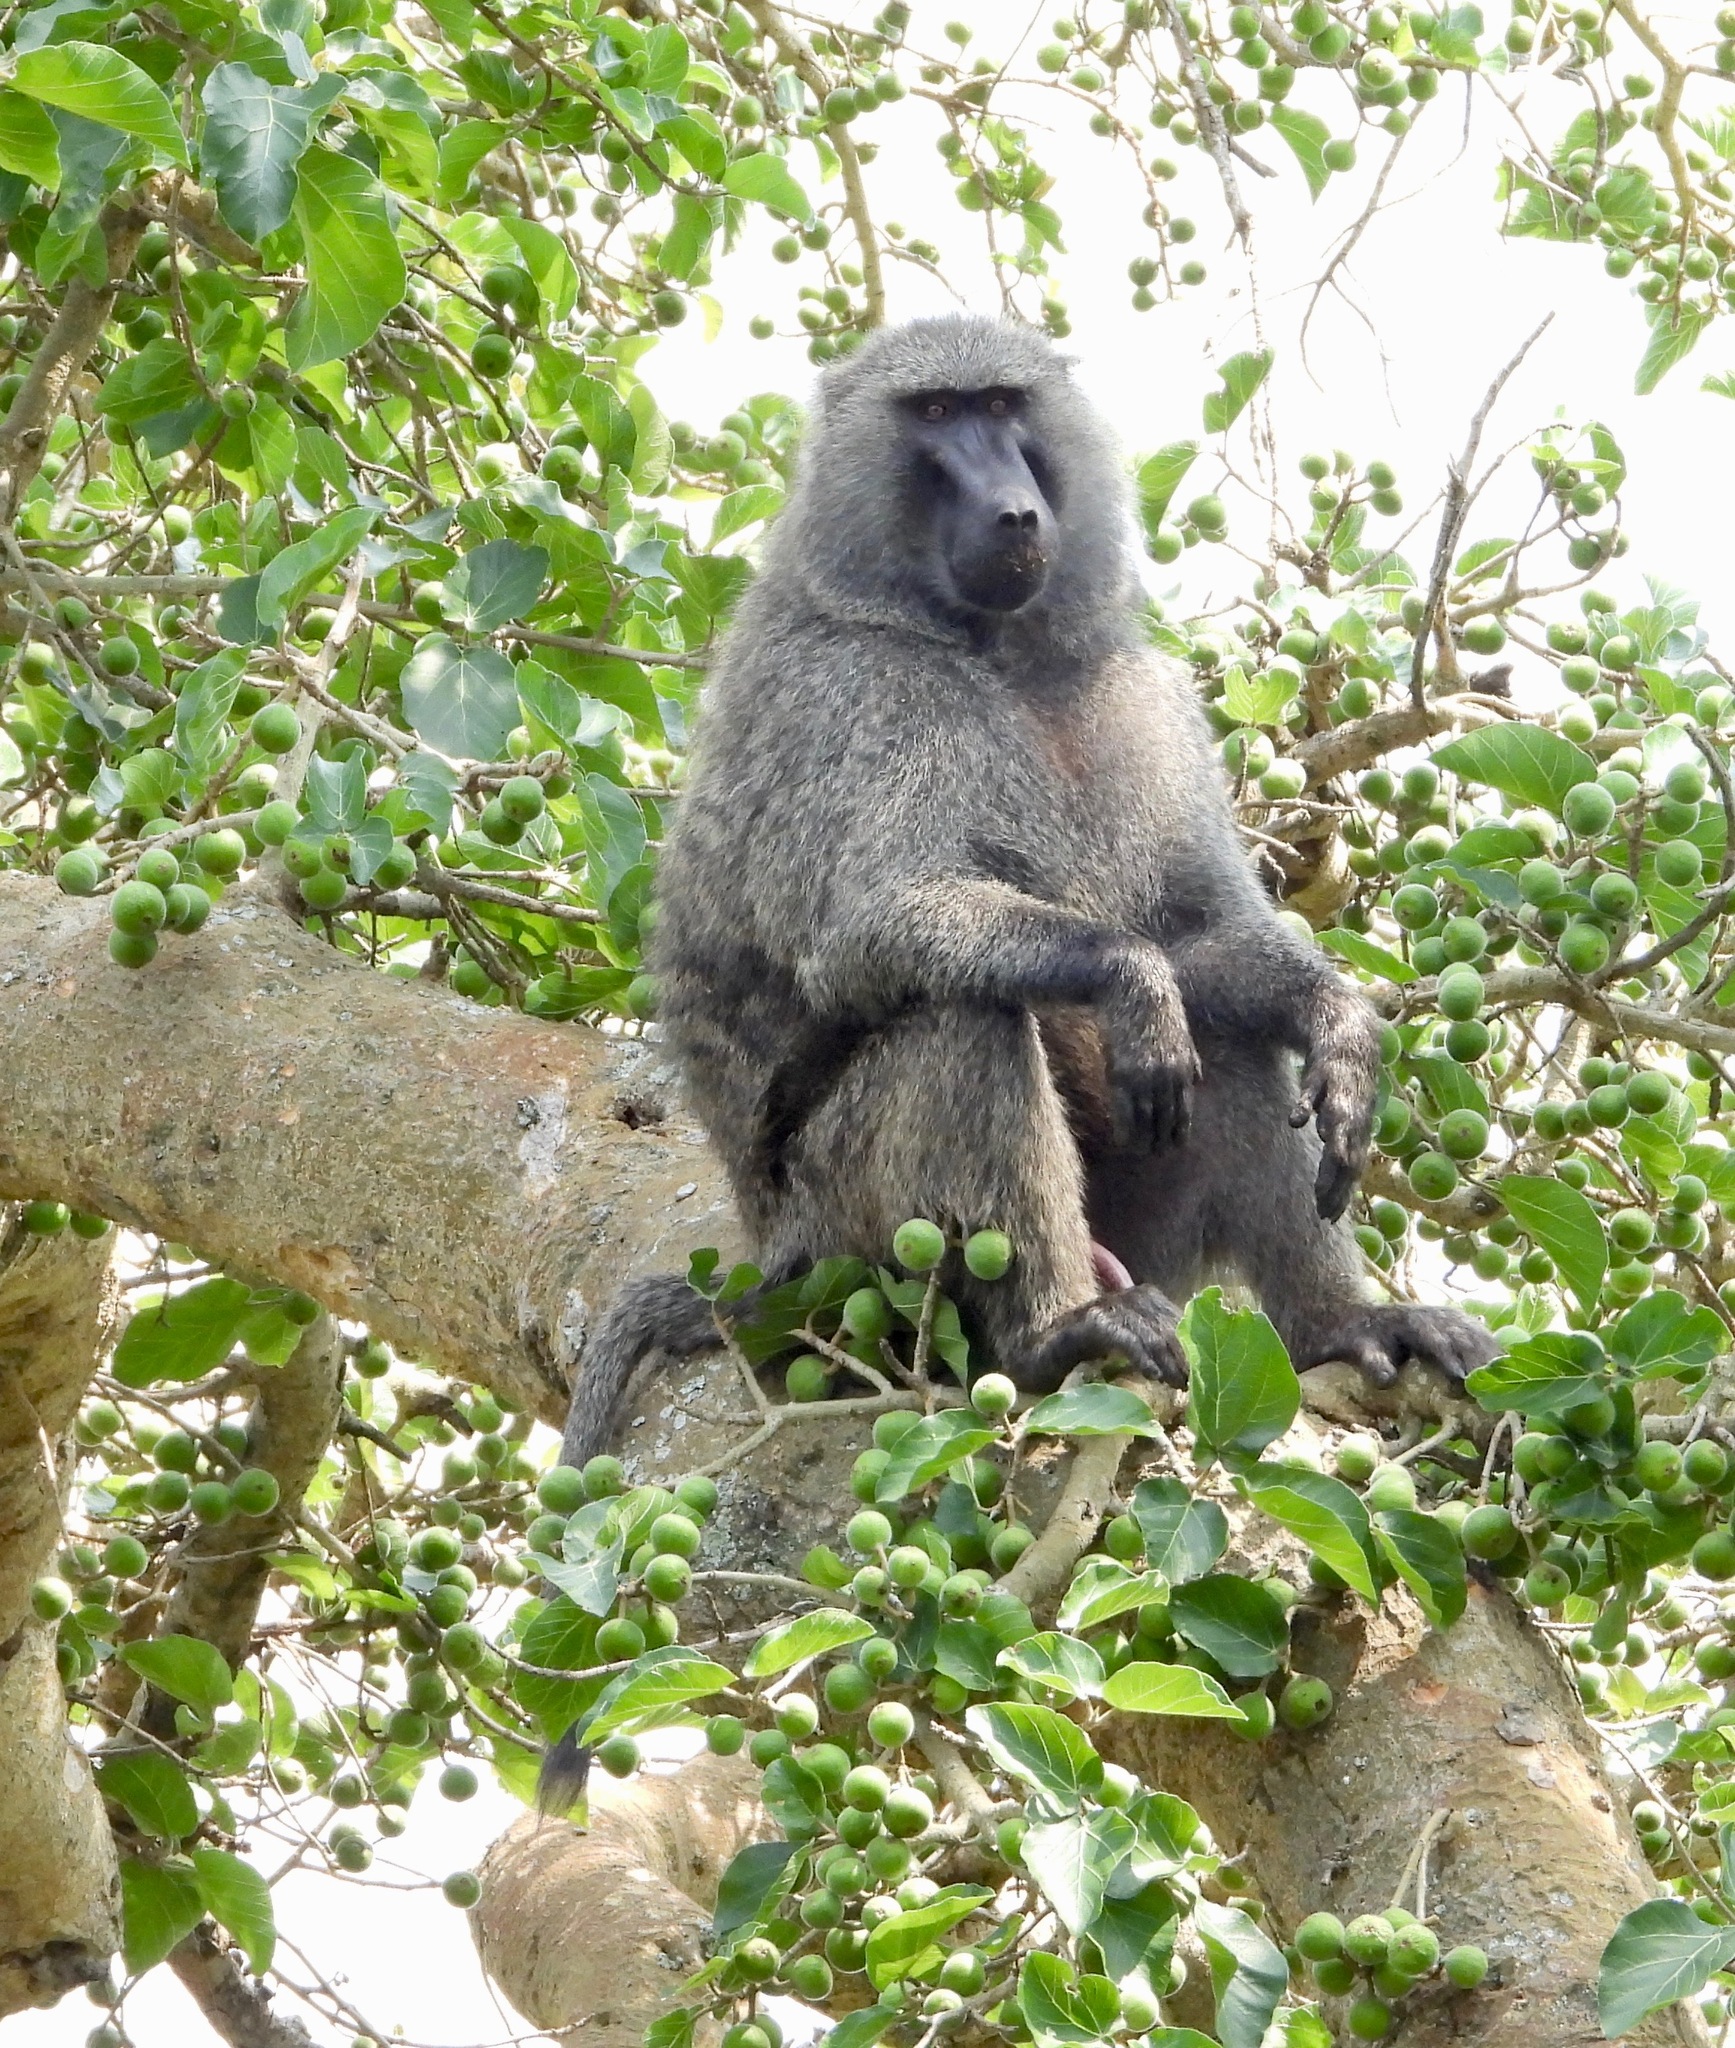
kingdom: Animalia
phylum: Chordata
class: Mammalia
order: Primates
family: Cercopithecidae
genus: Papio
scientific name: Papio anubis
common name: Olive baboon
